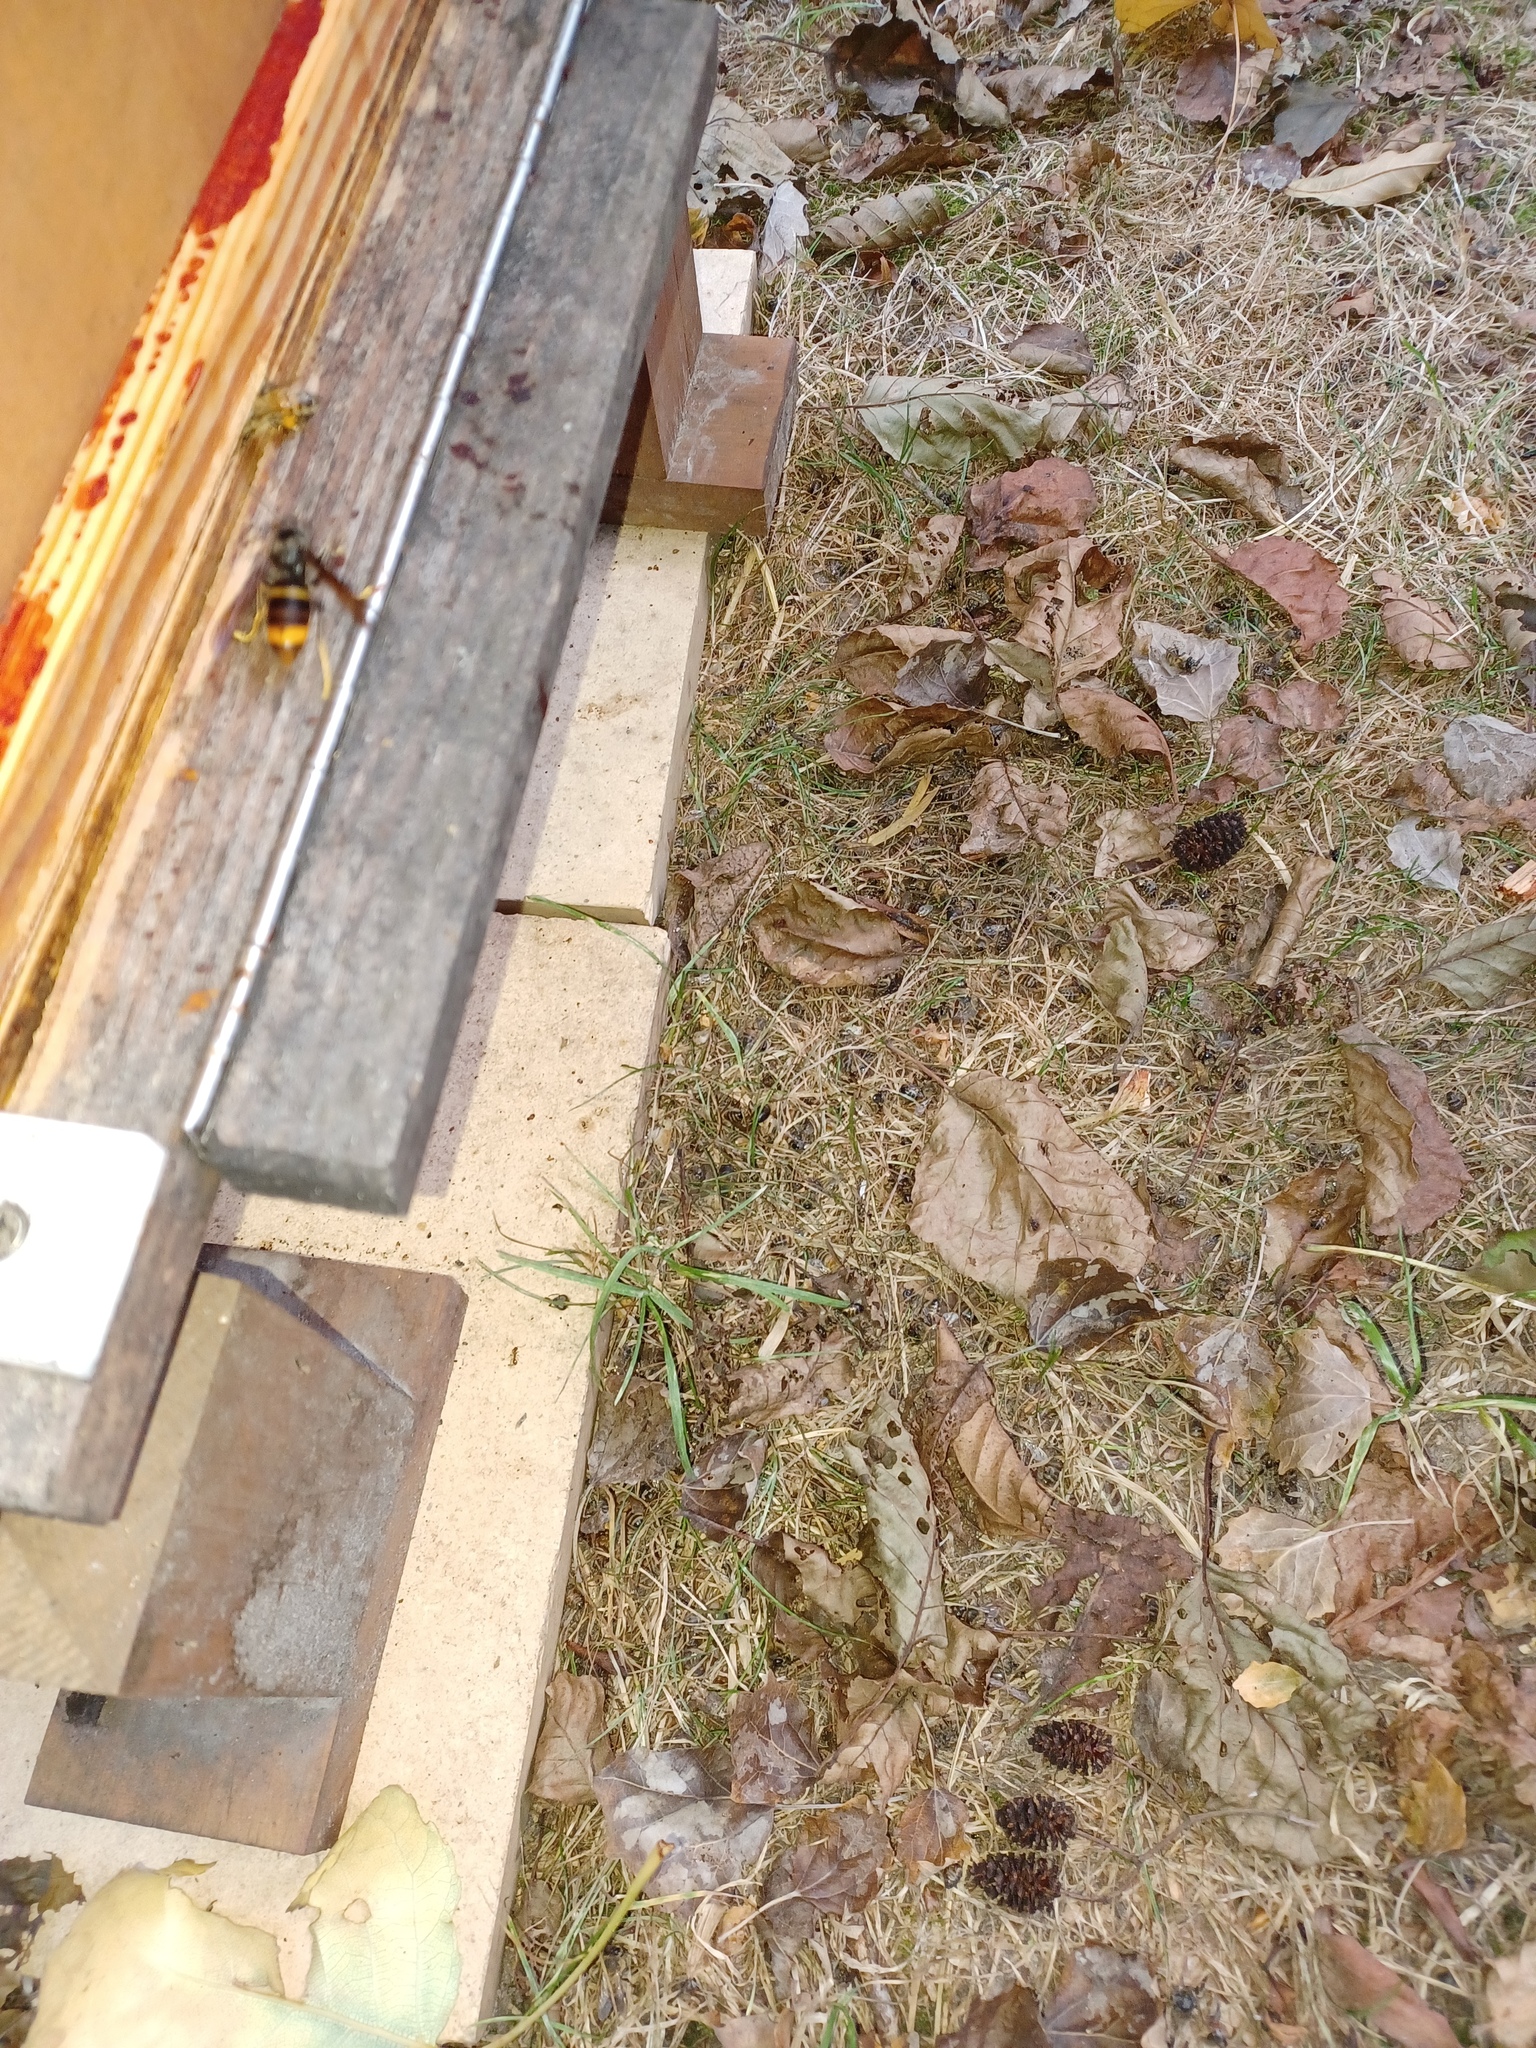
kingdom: Animalia
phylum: Arthropoda
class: Insecta
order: Hymenoptera
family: Vespidae
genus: Vespa
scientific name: Vespa velutina
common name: Asian hornet
